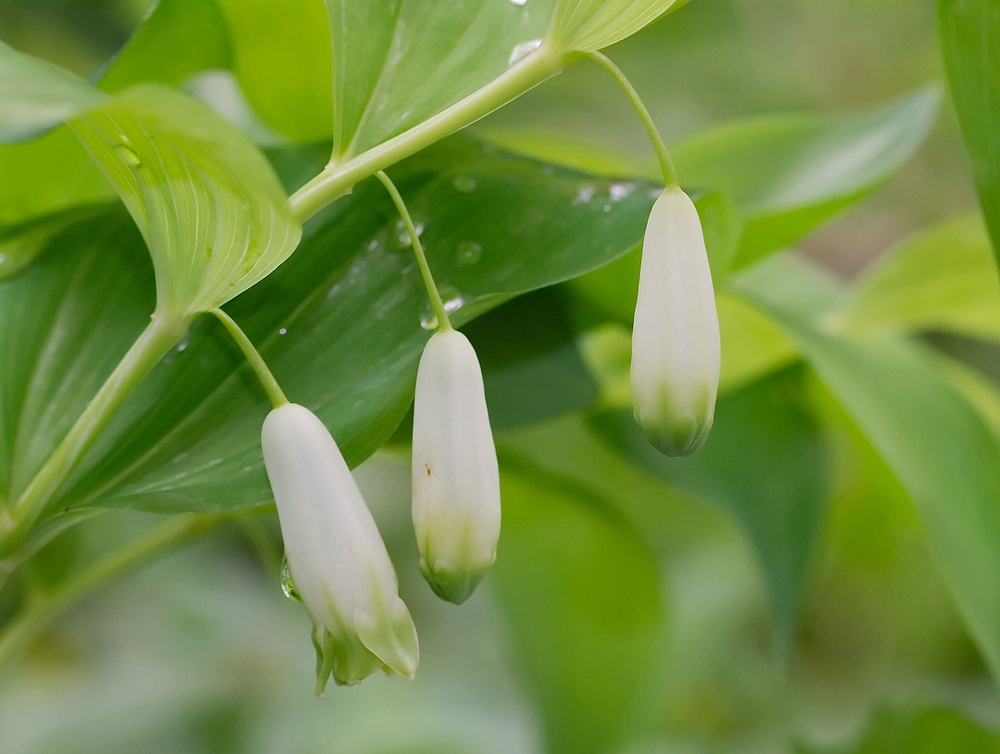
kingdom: Plantae
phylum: Tracheophyta
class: Liliopsida
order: Asparagales
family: Asparagaceae
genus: Polygonatum
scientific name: Polygonatum odoratum
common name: Angular solomon's-seal
